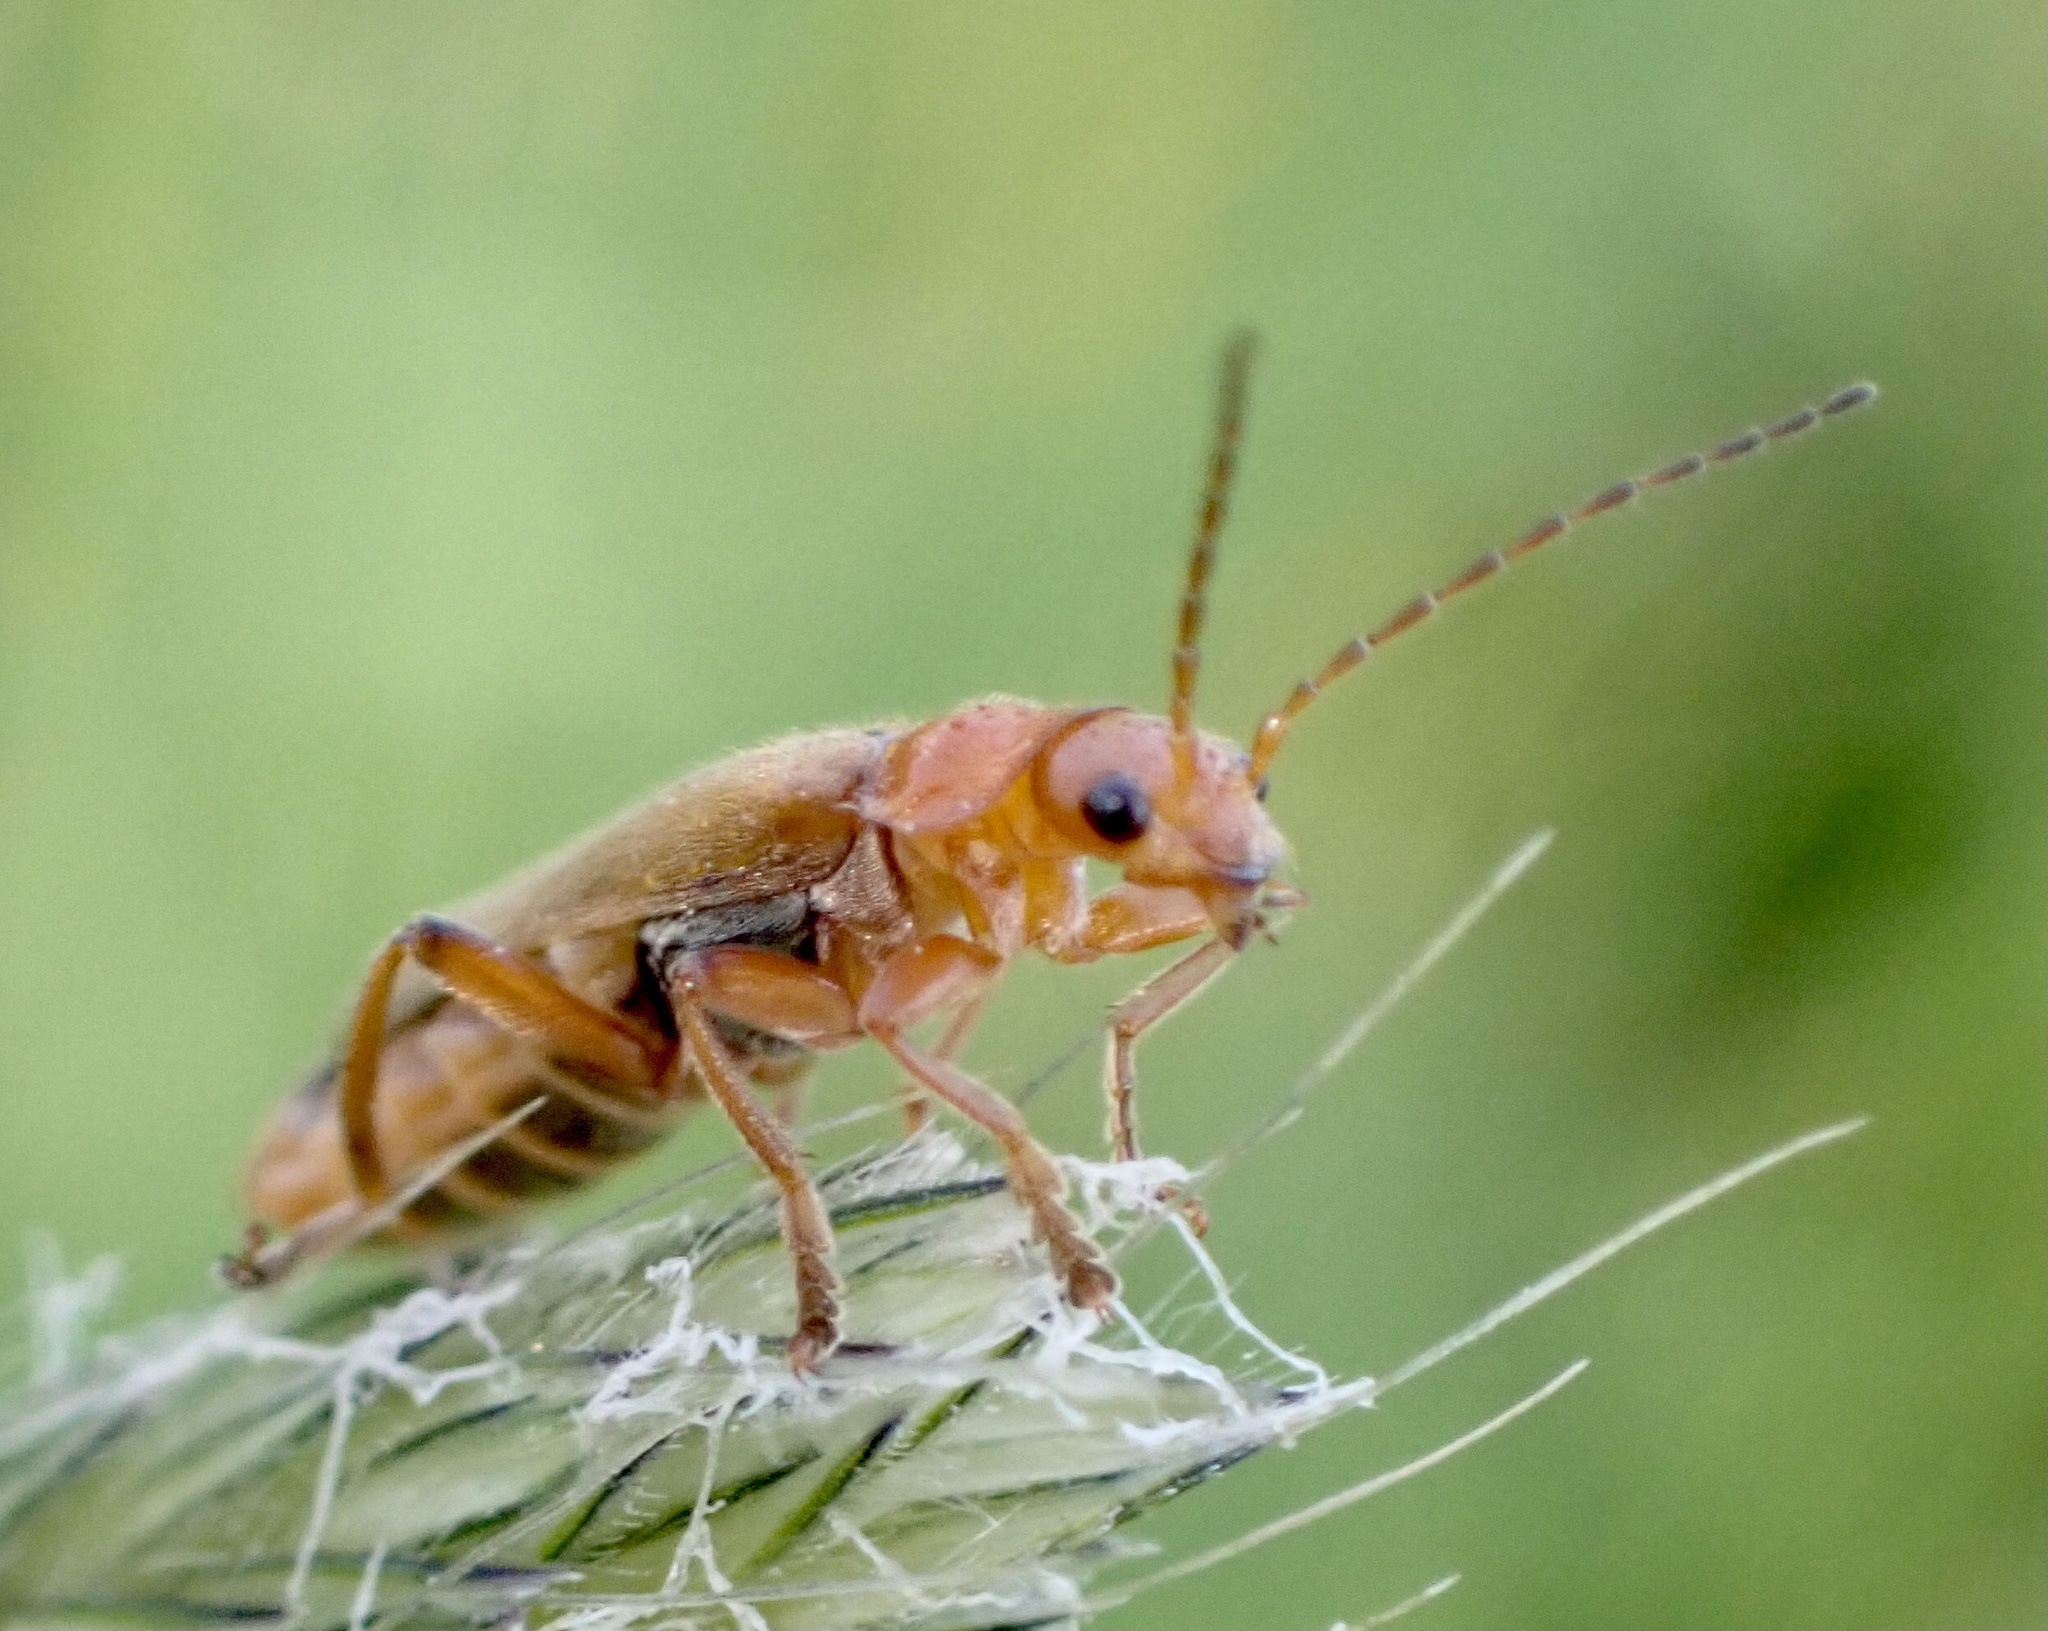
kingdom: Animalia
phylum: Arthropoda
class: Insecta
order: Coleoptera
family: Cantharidae
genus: Cantharis
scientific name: Cantharis pallida
